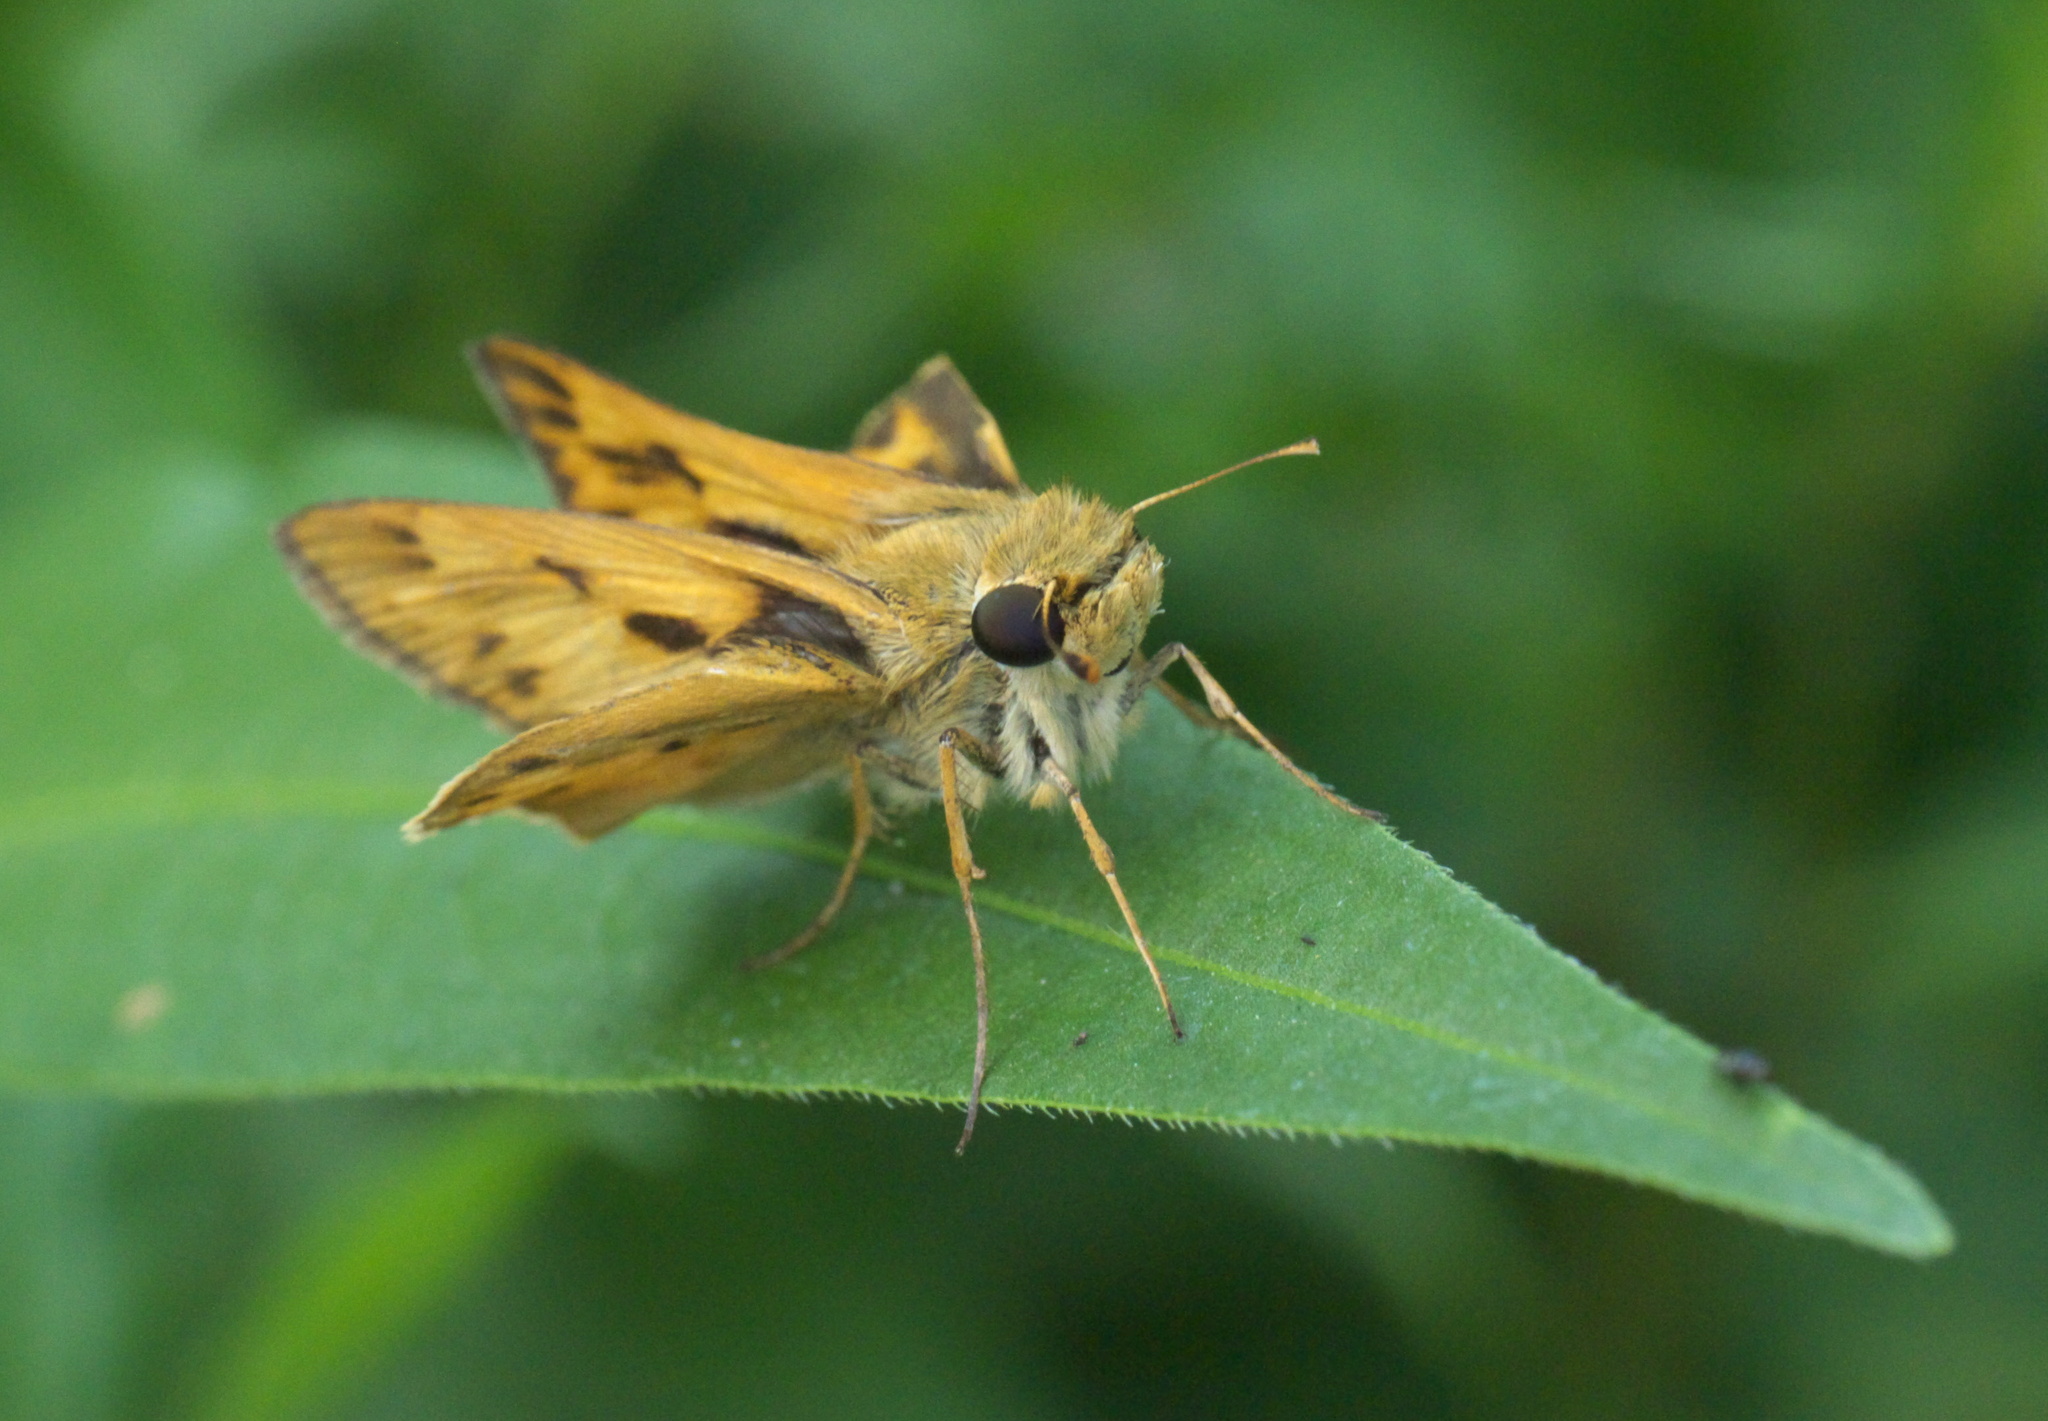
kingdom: Animalia
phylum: Arthropoda
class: Insecta
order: Lepidoptera
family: Hesperiidae
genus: Hylephila
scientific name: Hylephila phyleus
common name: Fiery skipper
